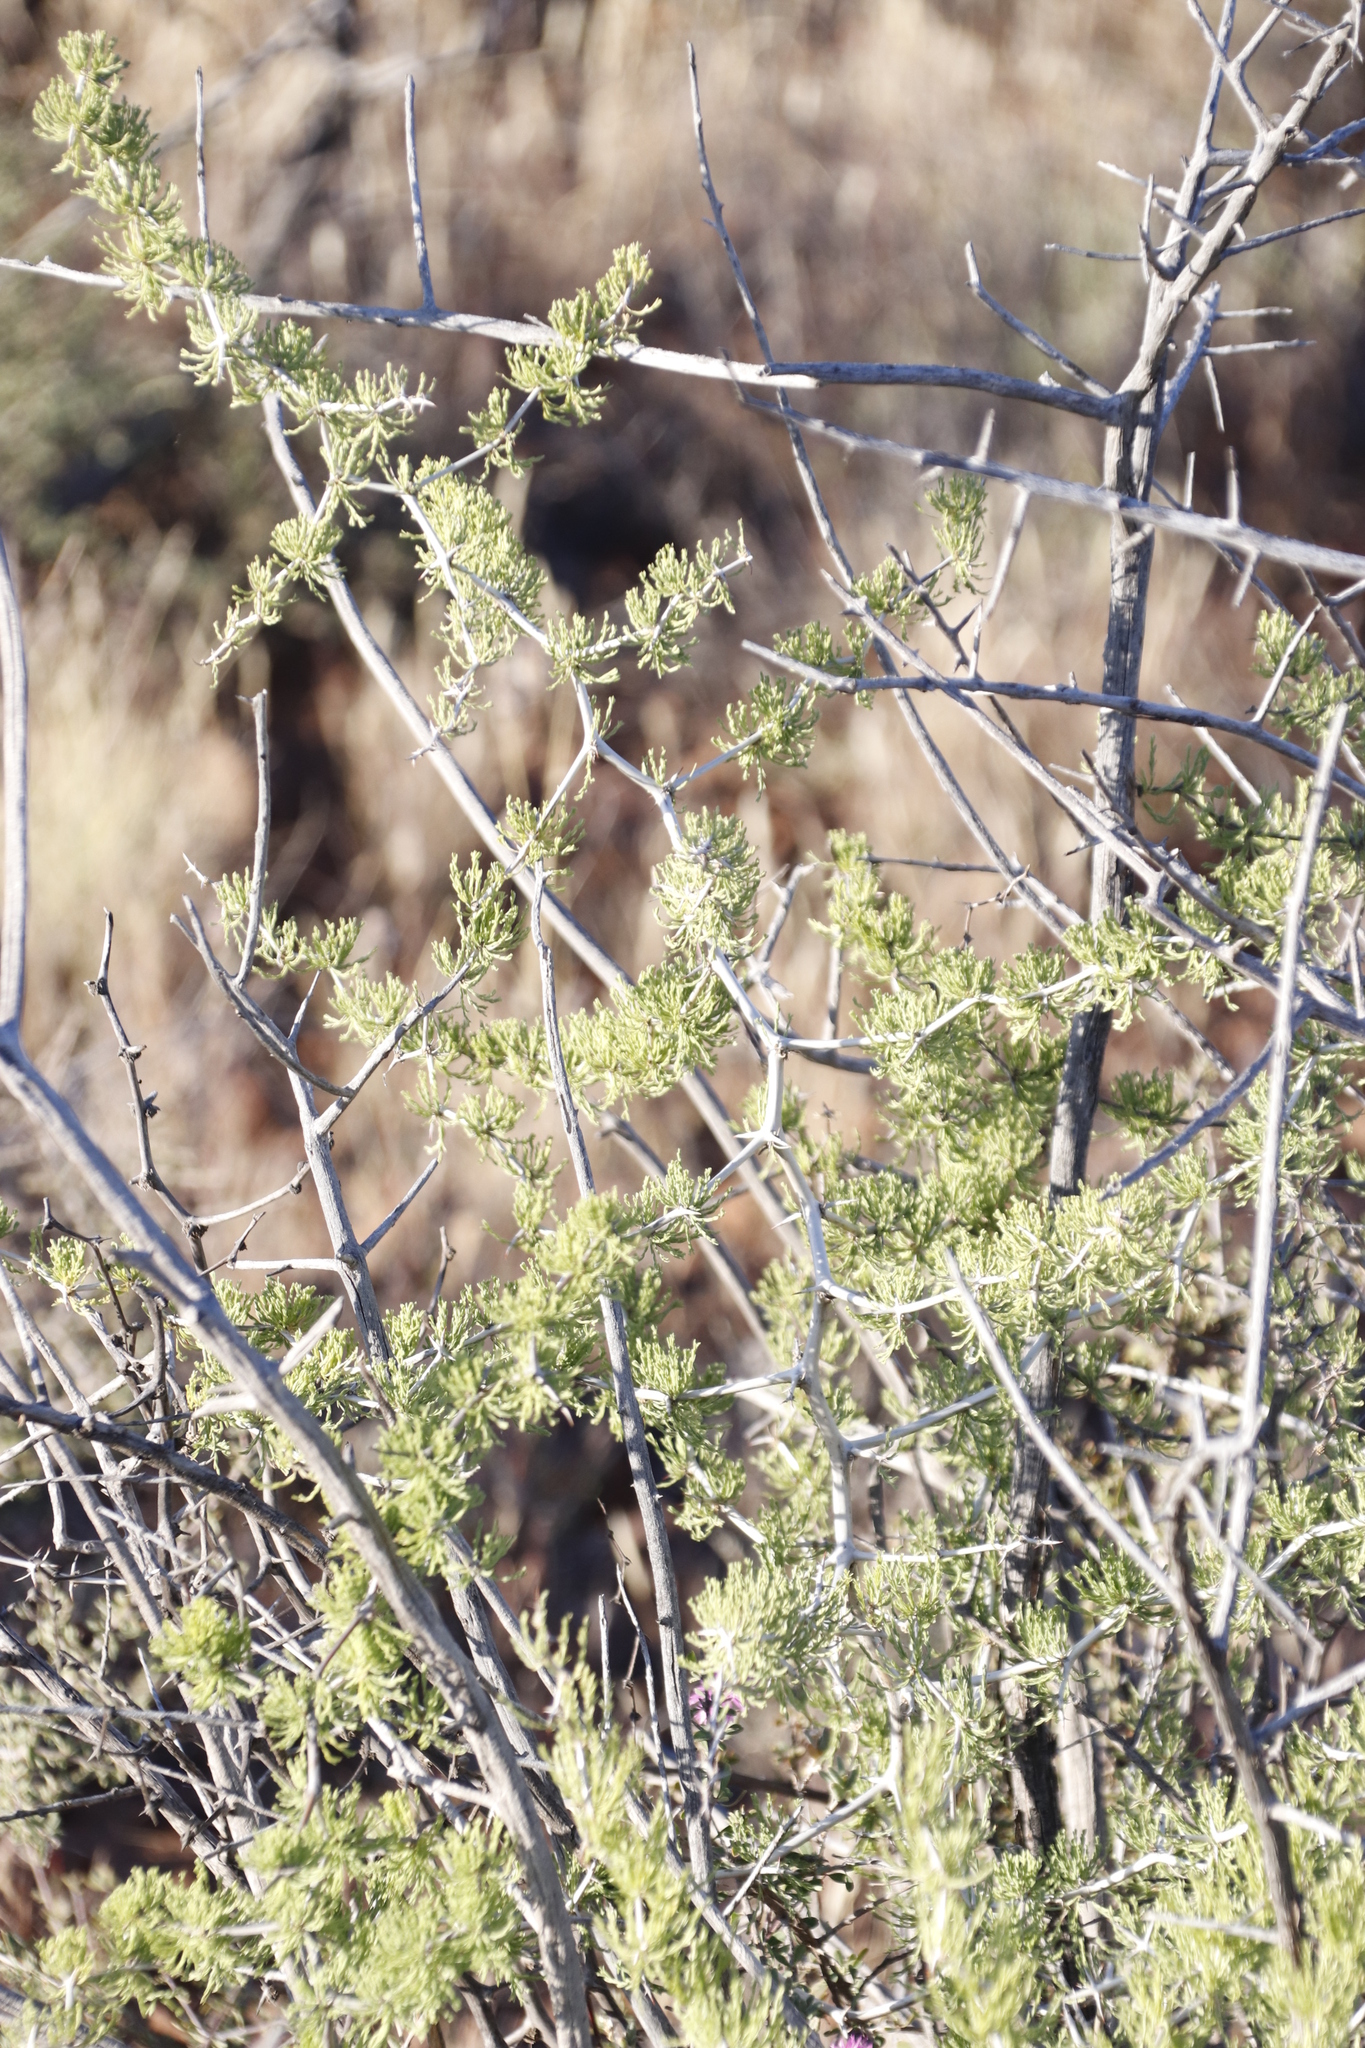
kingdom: Plantae
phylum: Tracheophyta
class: Liliopsida
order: Asparagales
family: Asparagaceae
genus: Asparagus
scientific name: Asparagus burchellii
